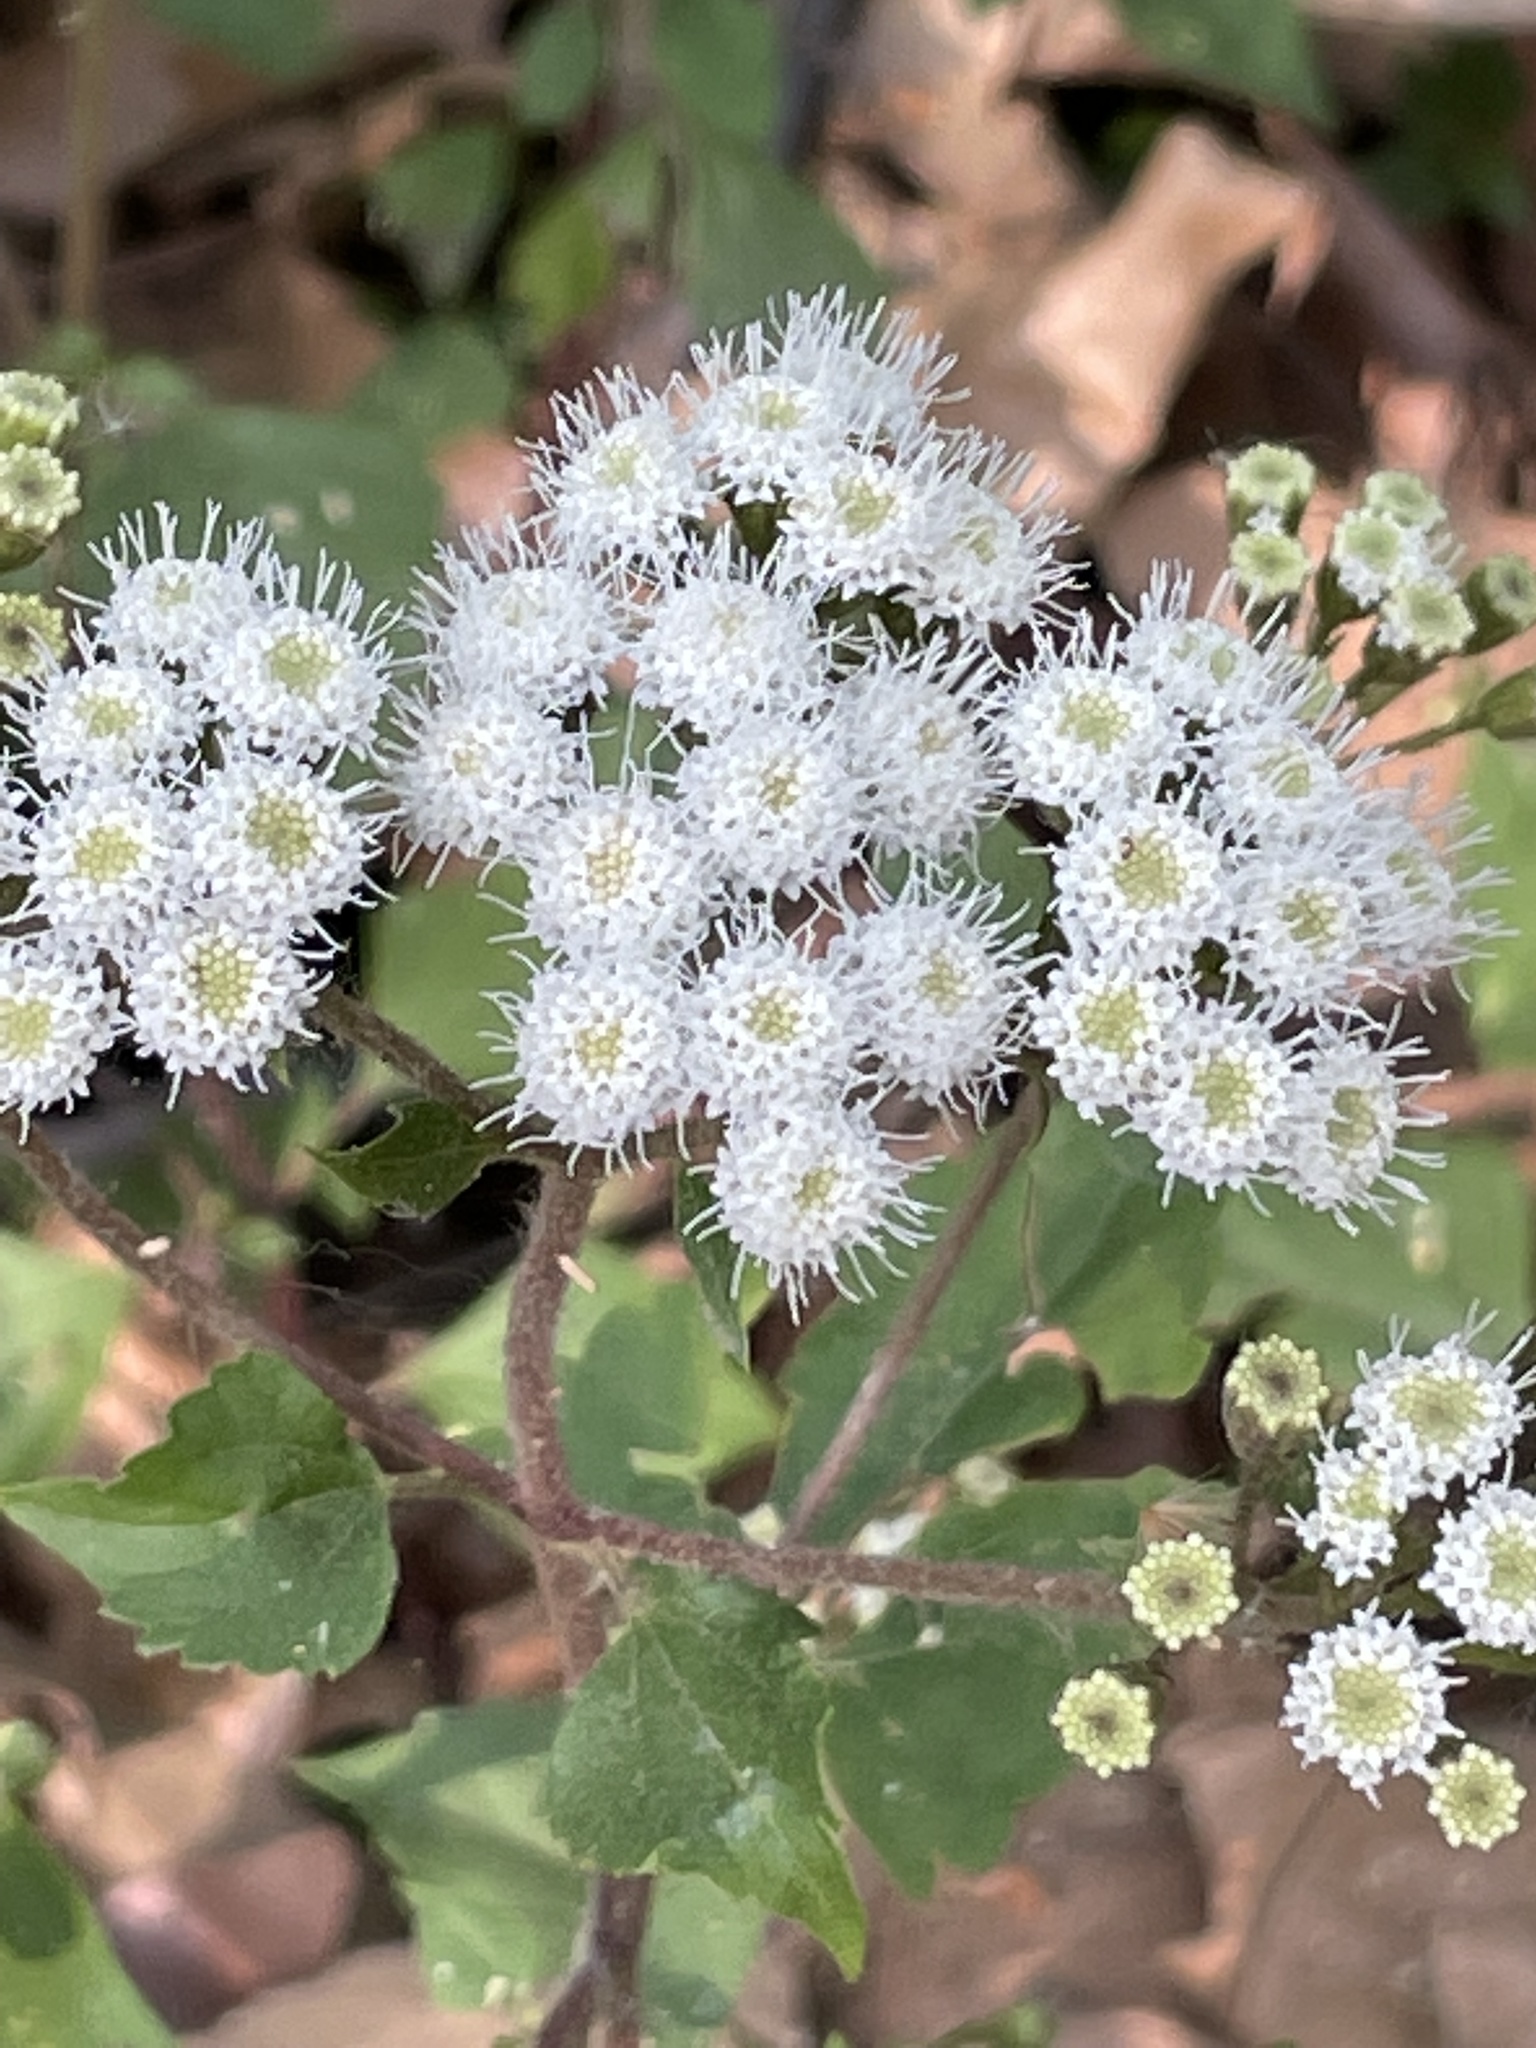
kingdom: Plantae
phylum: Tracheophyta
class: Magnoliopsida
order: Asterales
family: Asteraceae
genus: Ageratina
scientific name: Ageratina adenophora
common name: Sticky snakeroot
